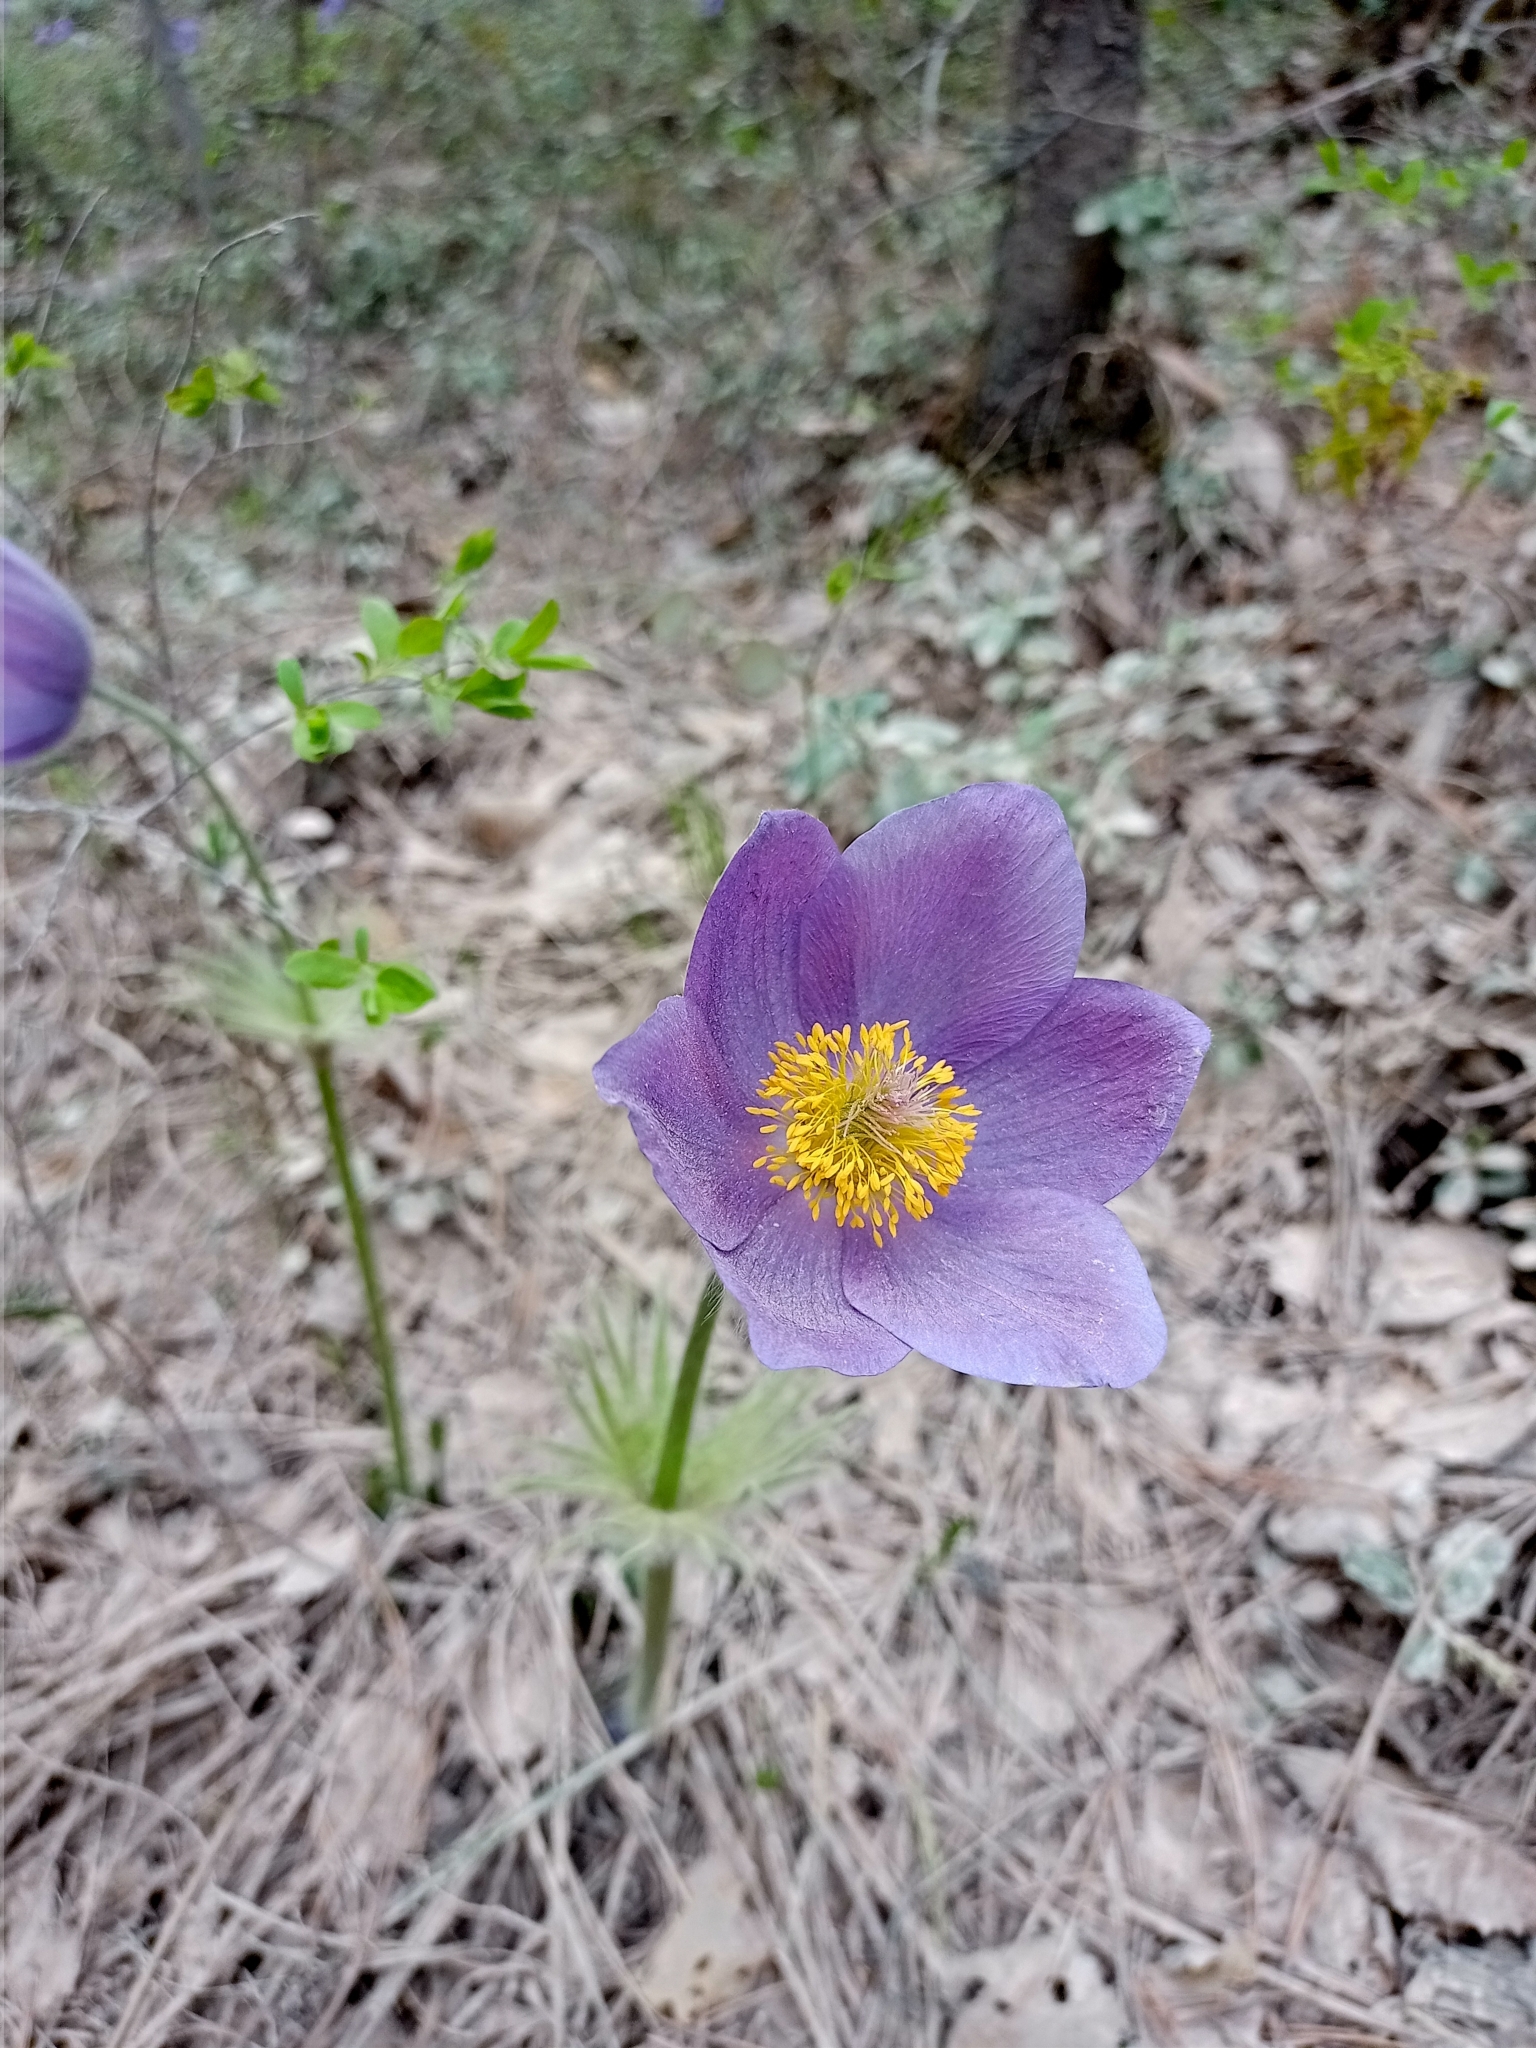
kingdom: Plantae
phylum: Tracheophyta
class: Magnoliopsida
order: Ranunculales
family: Ranunculaceae
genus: Pulsatilla
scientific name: Pulsatilla patens
